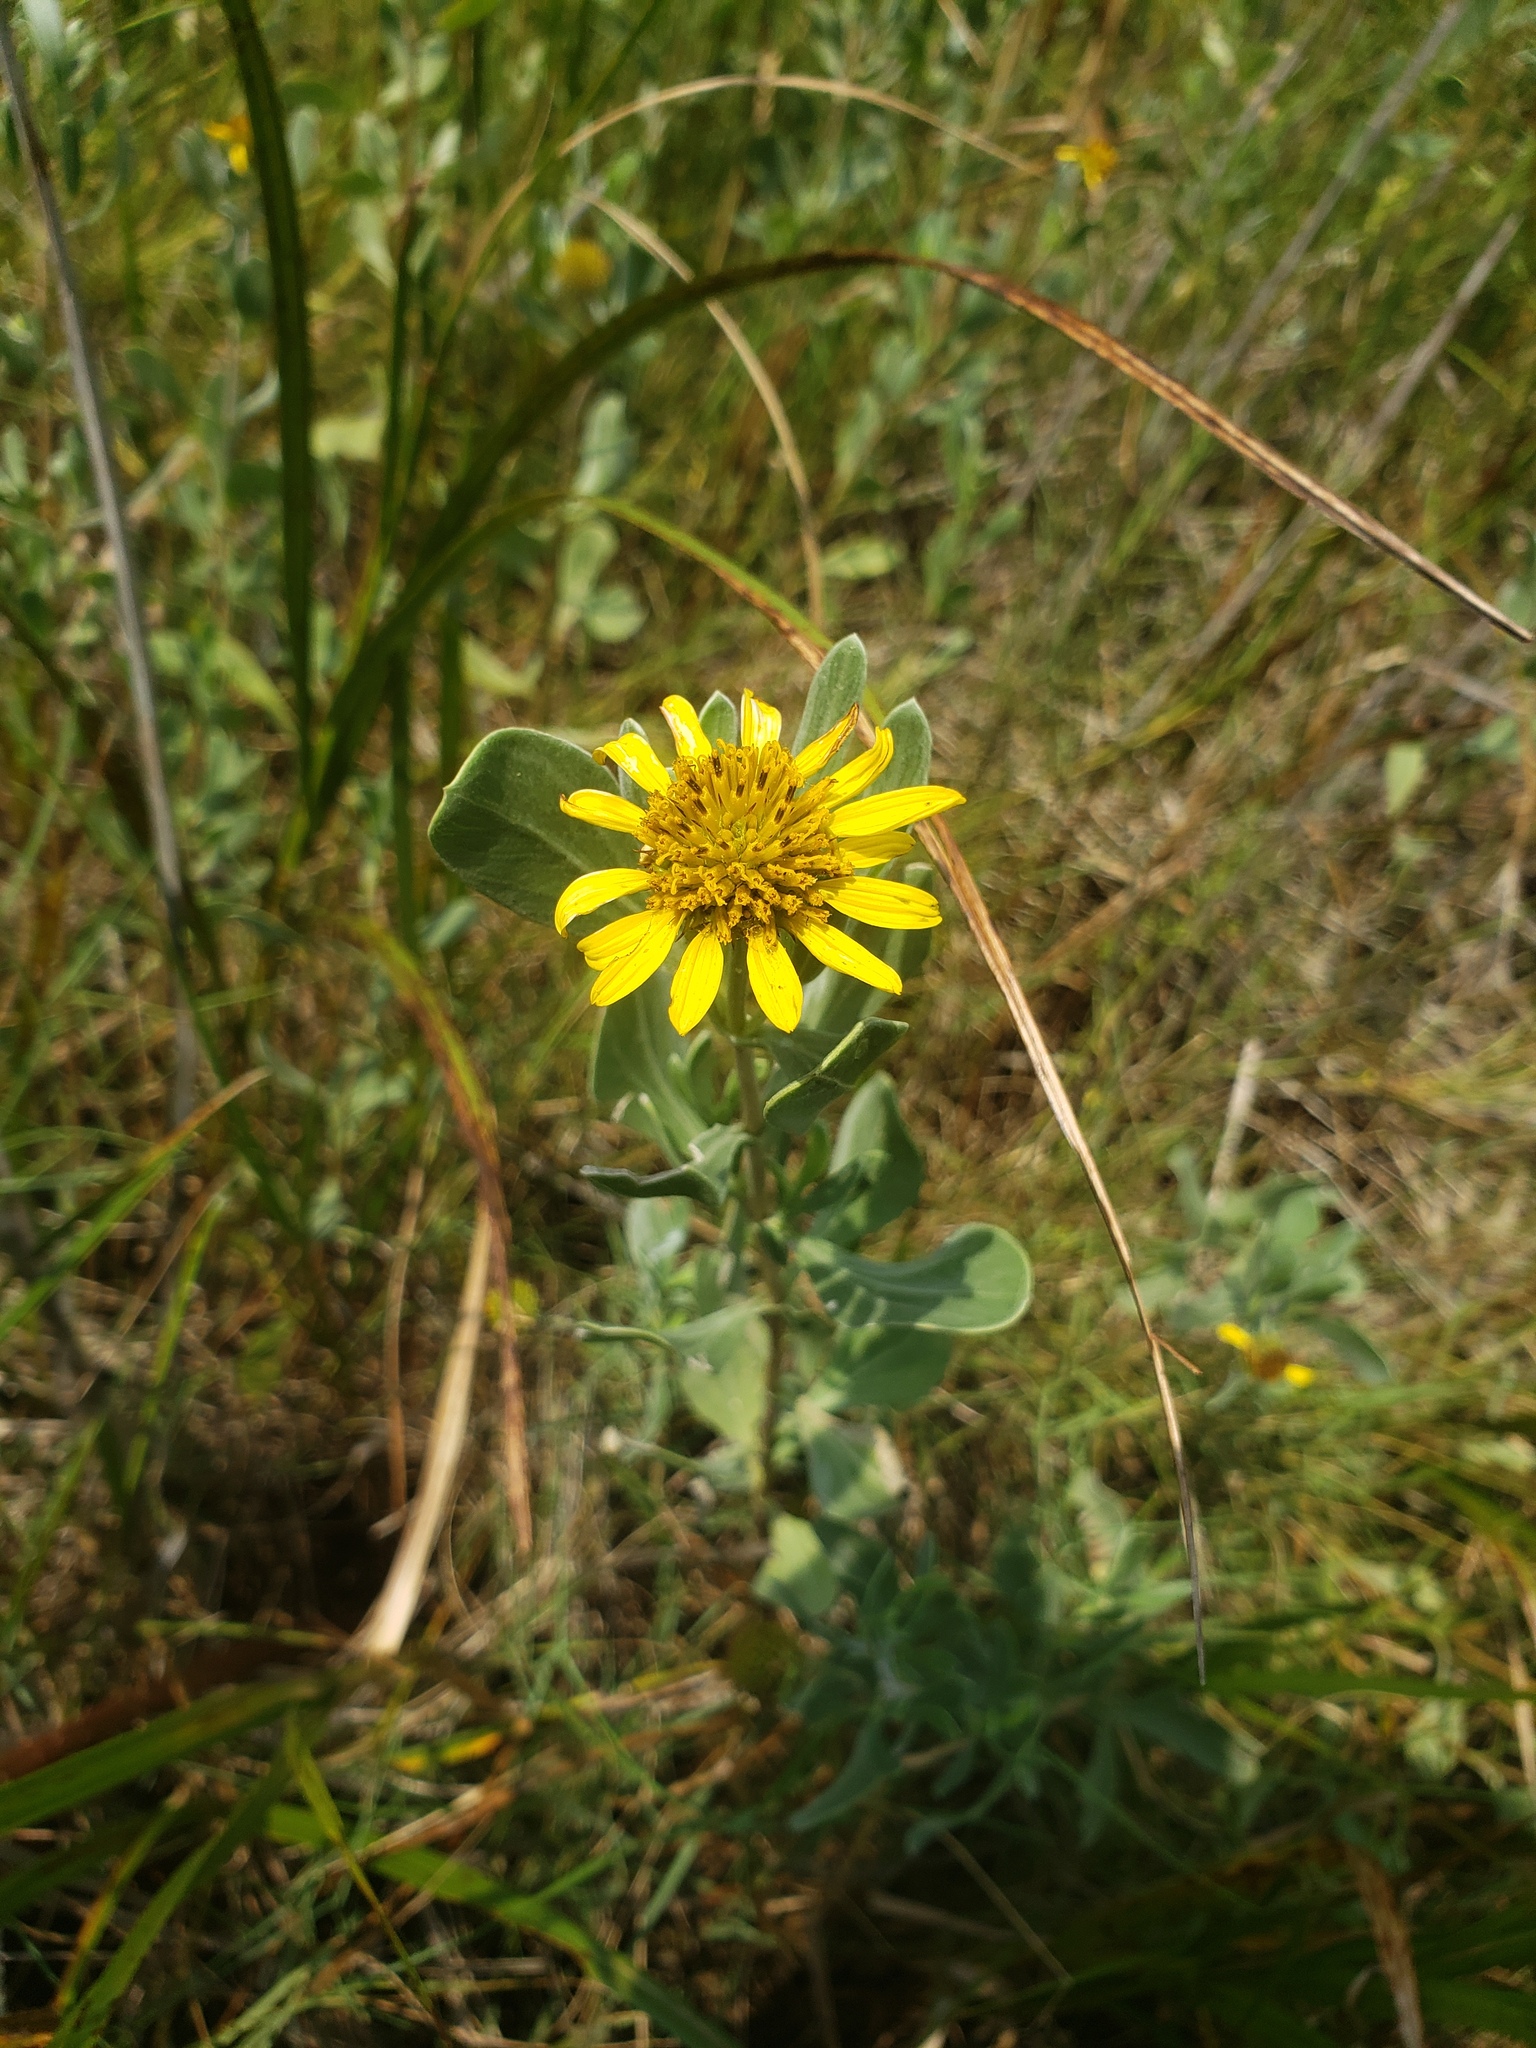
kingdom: Plantae
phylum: Tracheophyta
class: Magnoliopsida
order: Asterales
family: Asteraceae
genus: Borrichia
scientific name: Borrichia frutescens
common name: Sea oxeye
